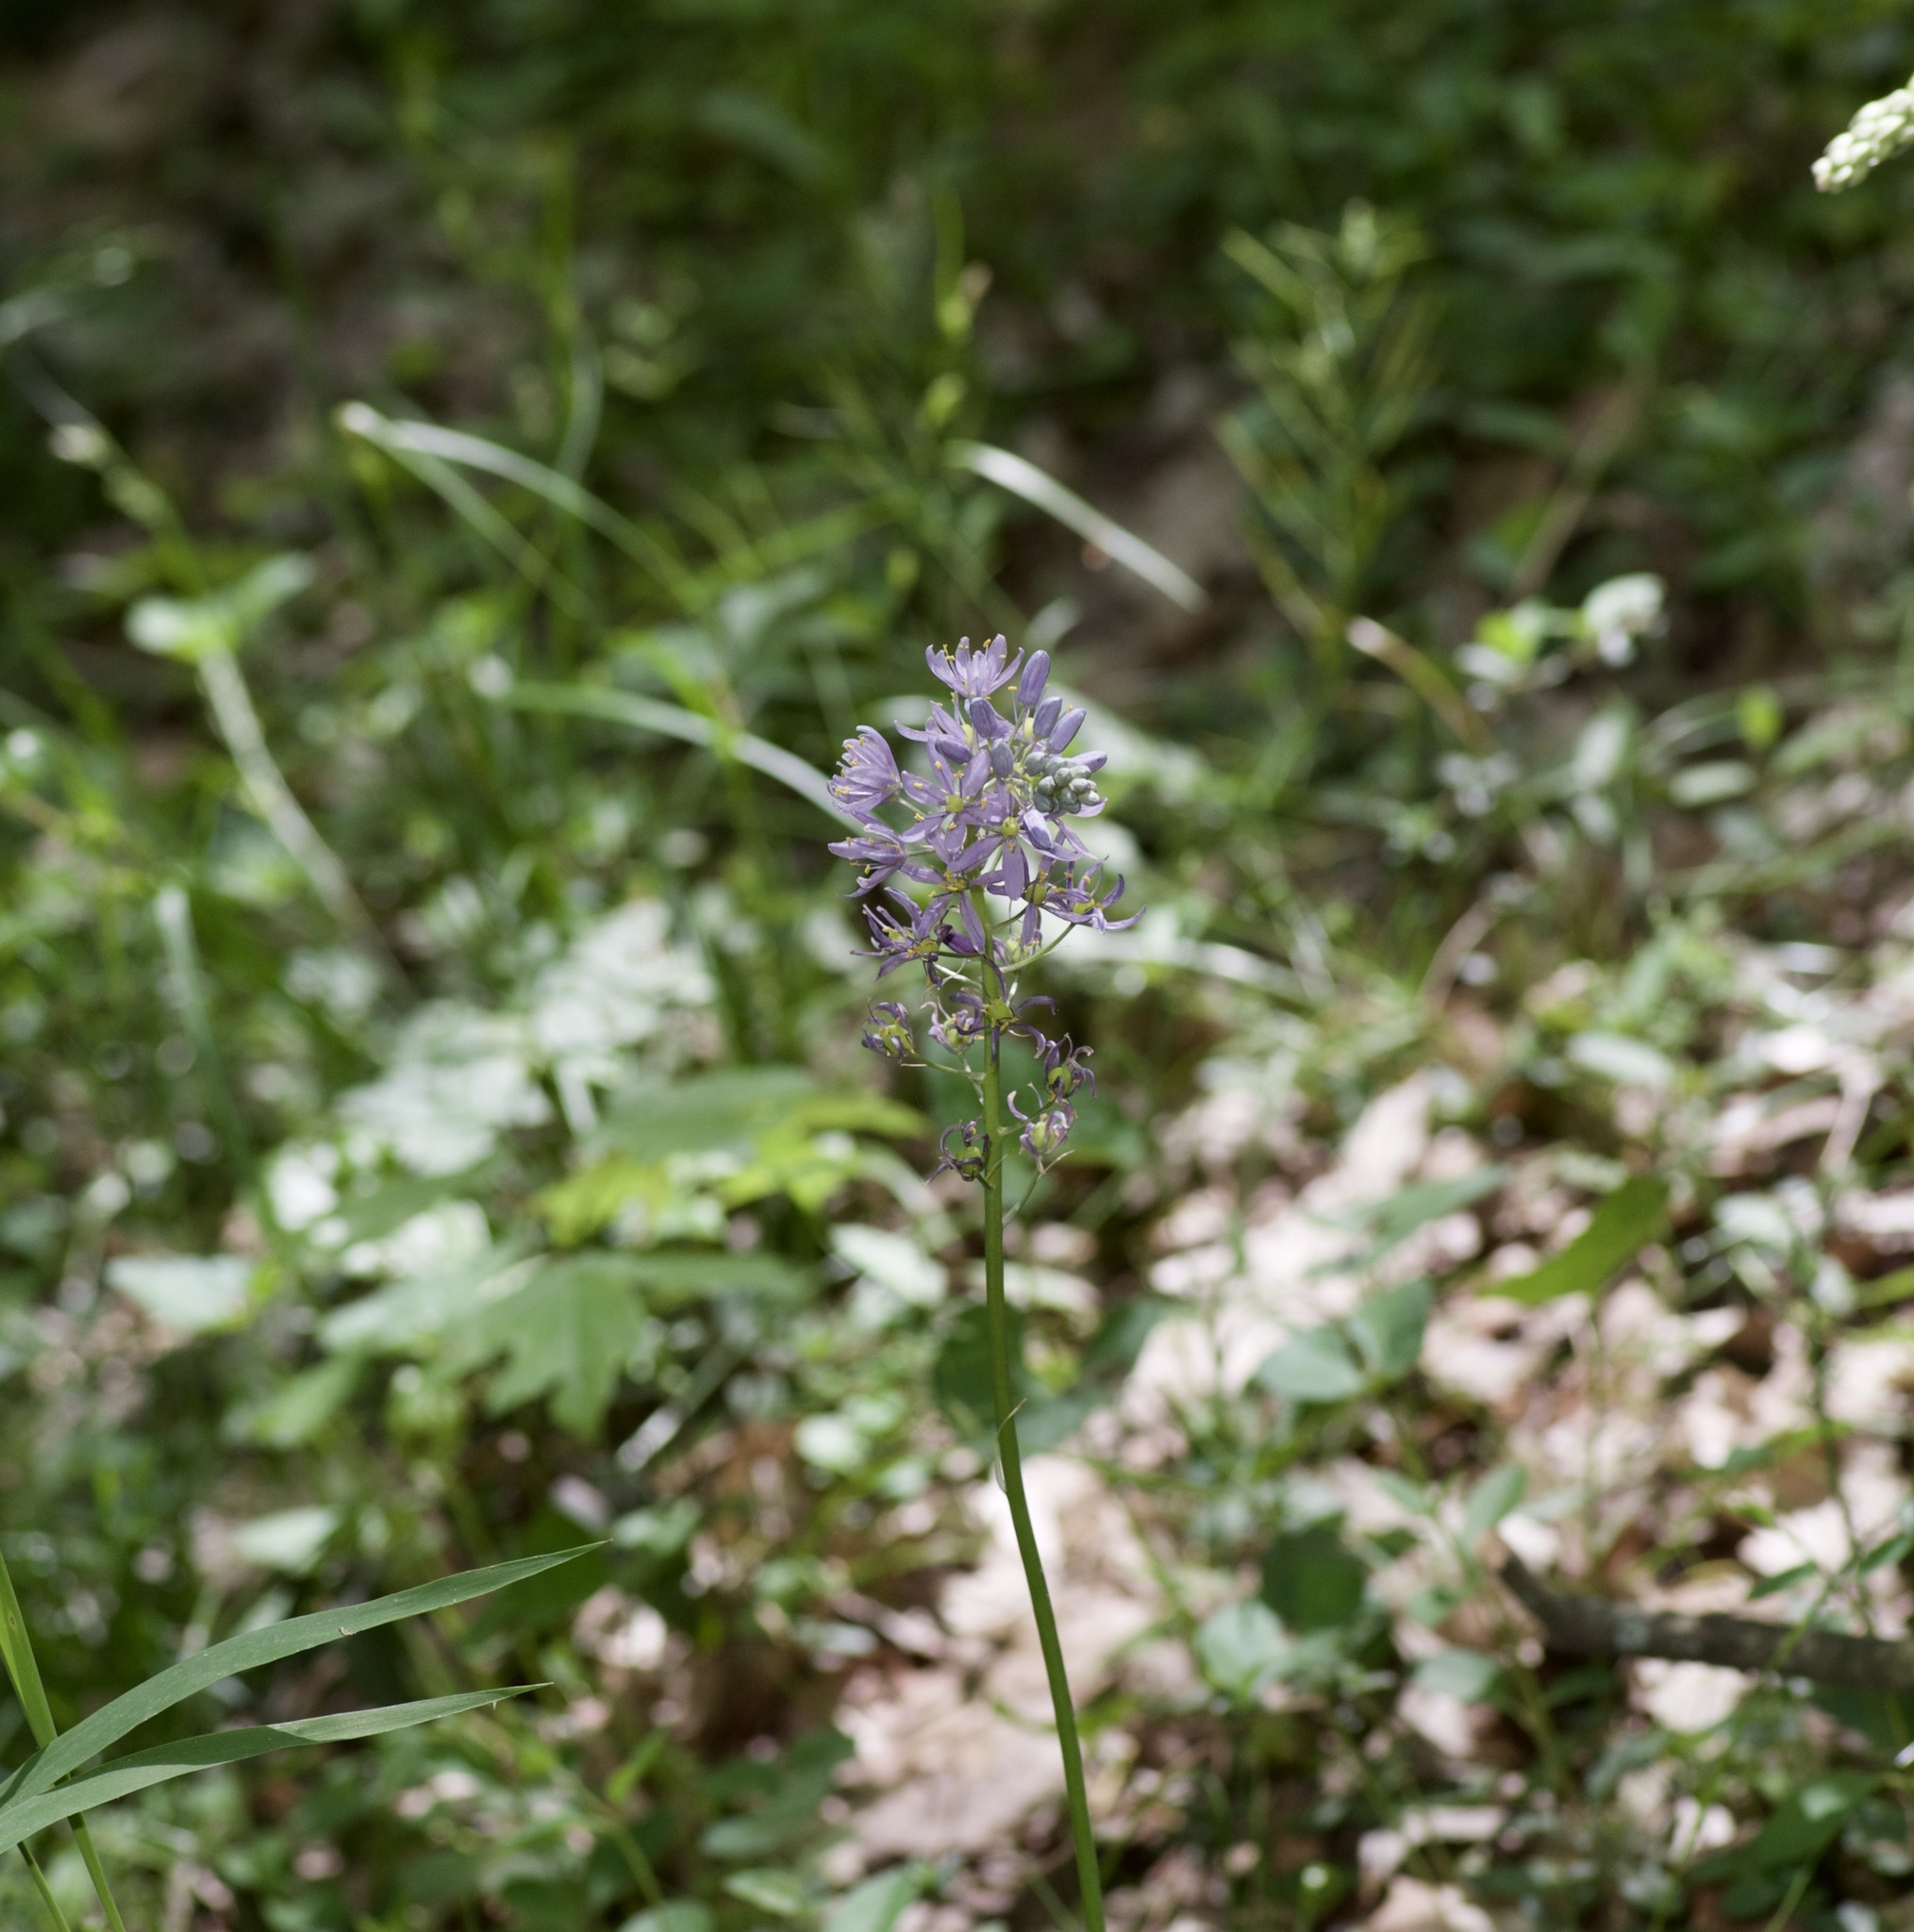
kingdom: Plantae
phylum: Tracheophyta
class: Liliopsida
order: Asparagales
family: Asparagaceae
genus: Camassia
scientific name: Camassia scilloides
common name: Wild hyacinth
